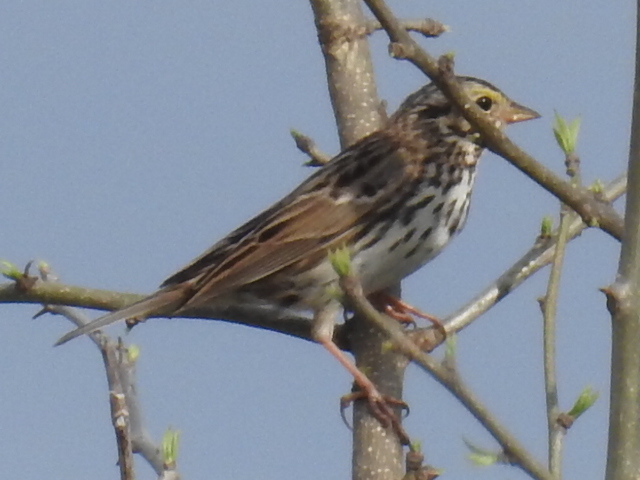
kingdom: Animalia
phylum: Chordata
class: Aves
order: Passeriformes
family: Passerellidae
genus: Passerculus
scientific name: Passerculus sandwichensis
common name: Savannah sparrow
